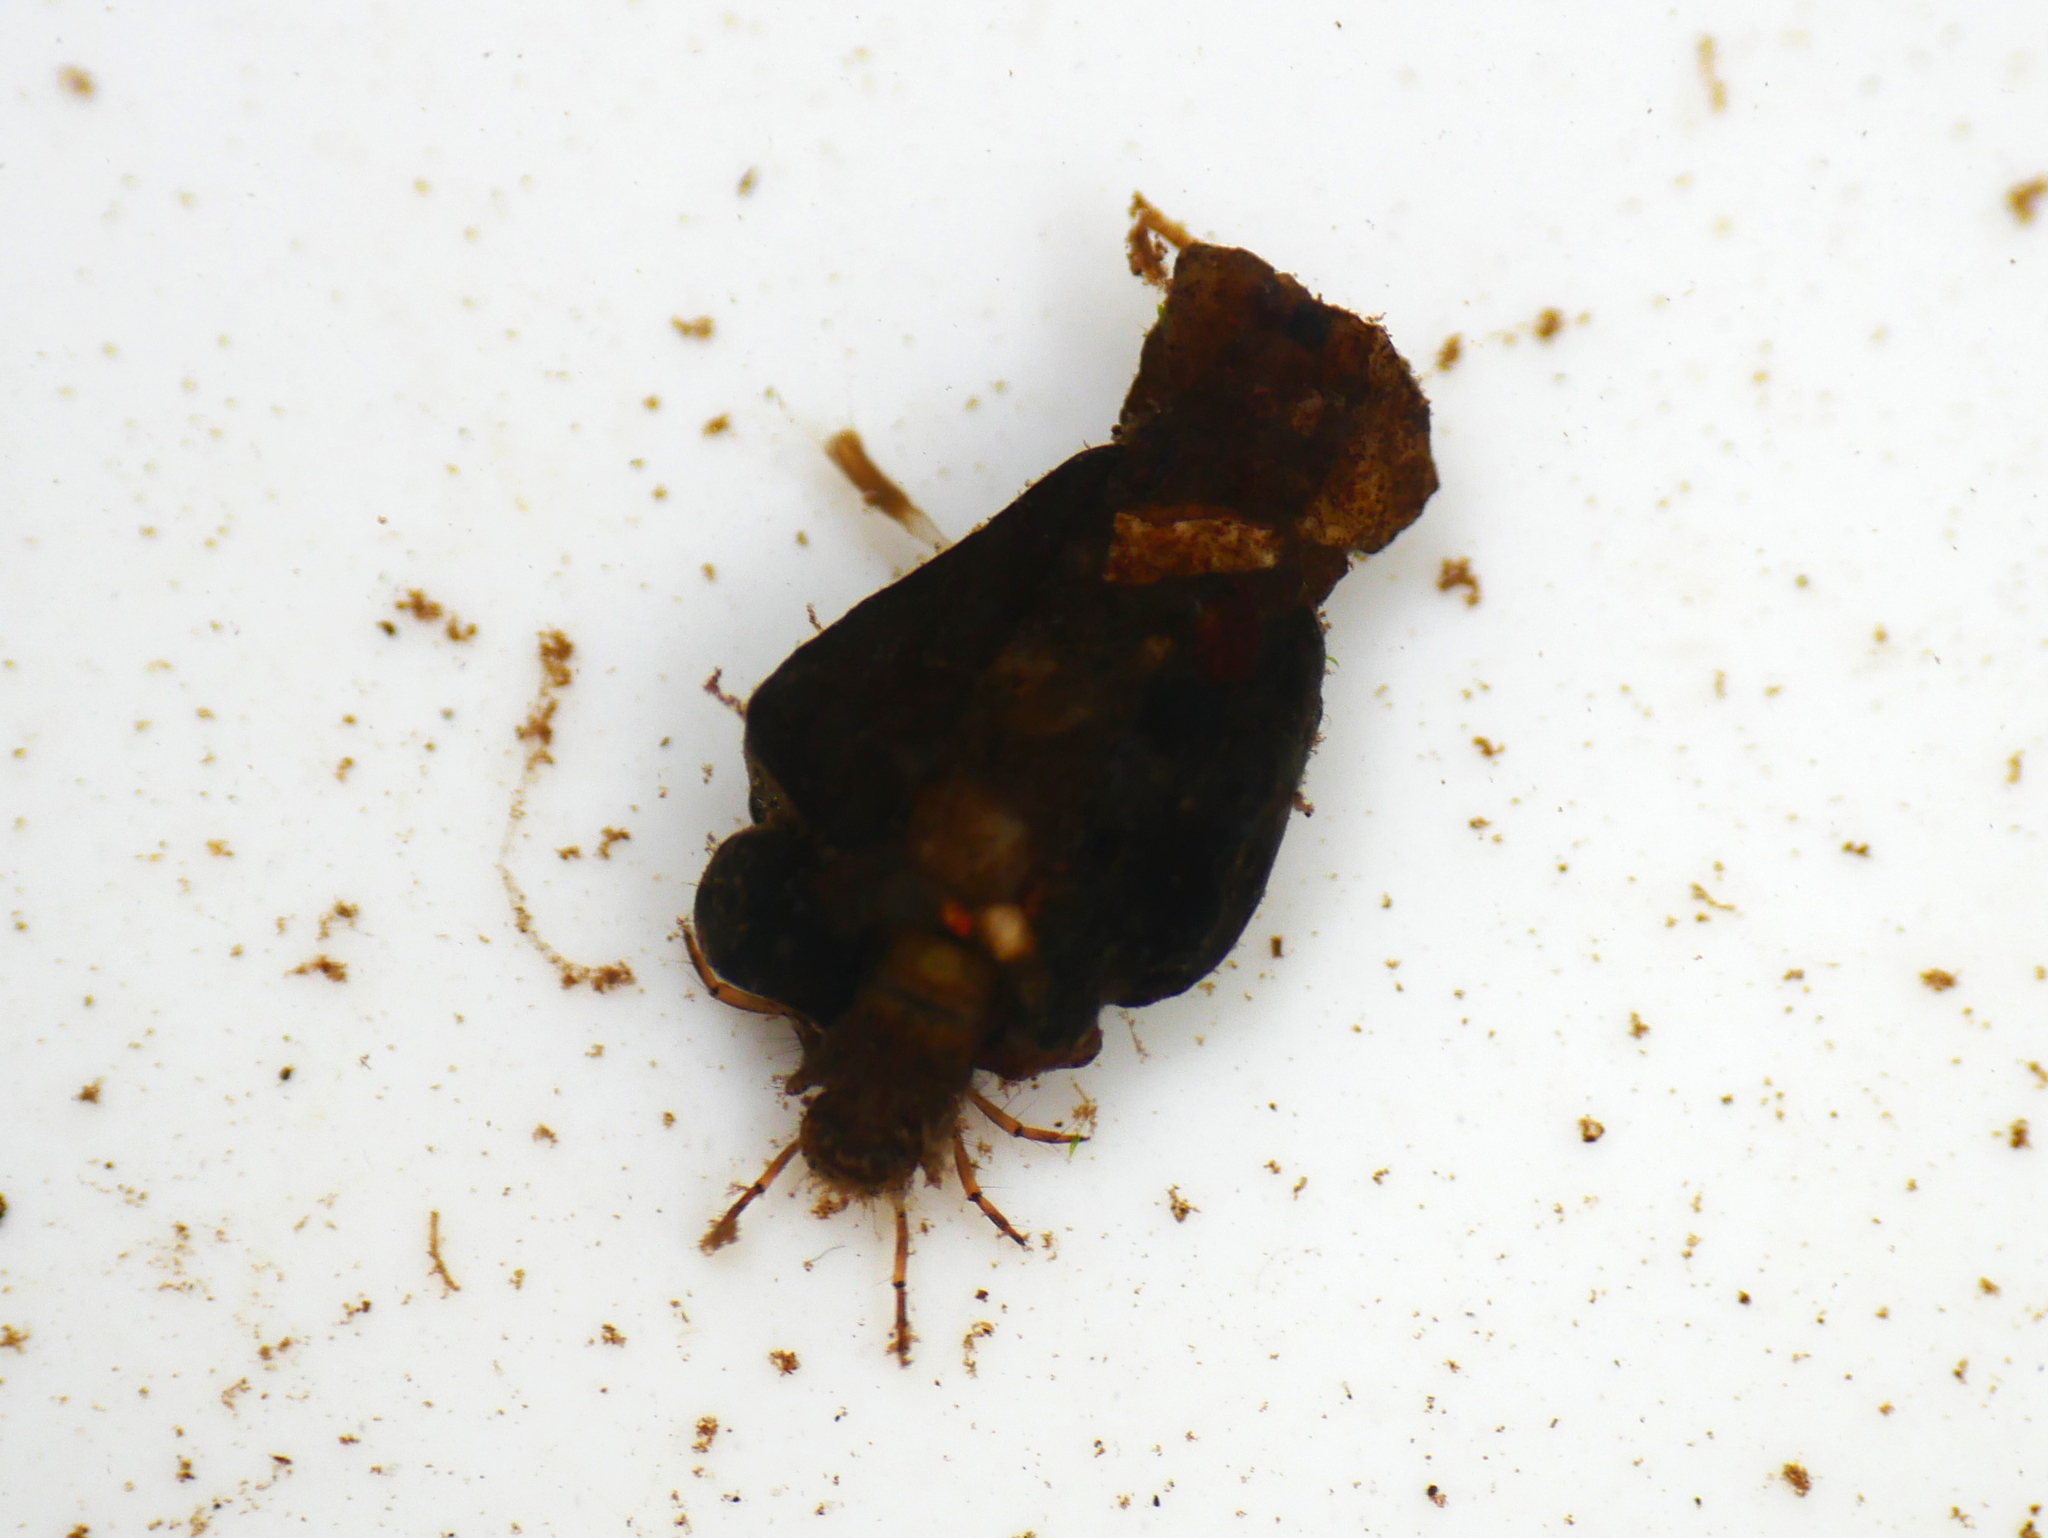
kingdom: Animalia
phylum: Arthropoda
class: Insecta
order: Trichoptera
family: Goeridae
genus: Goera
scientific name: Goera pilosa
